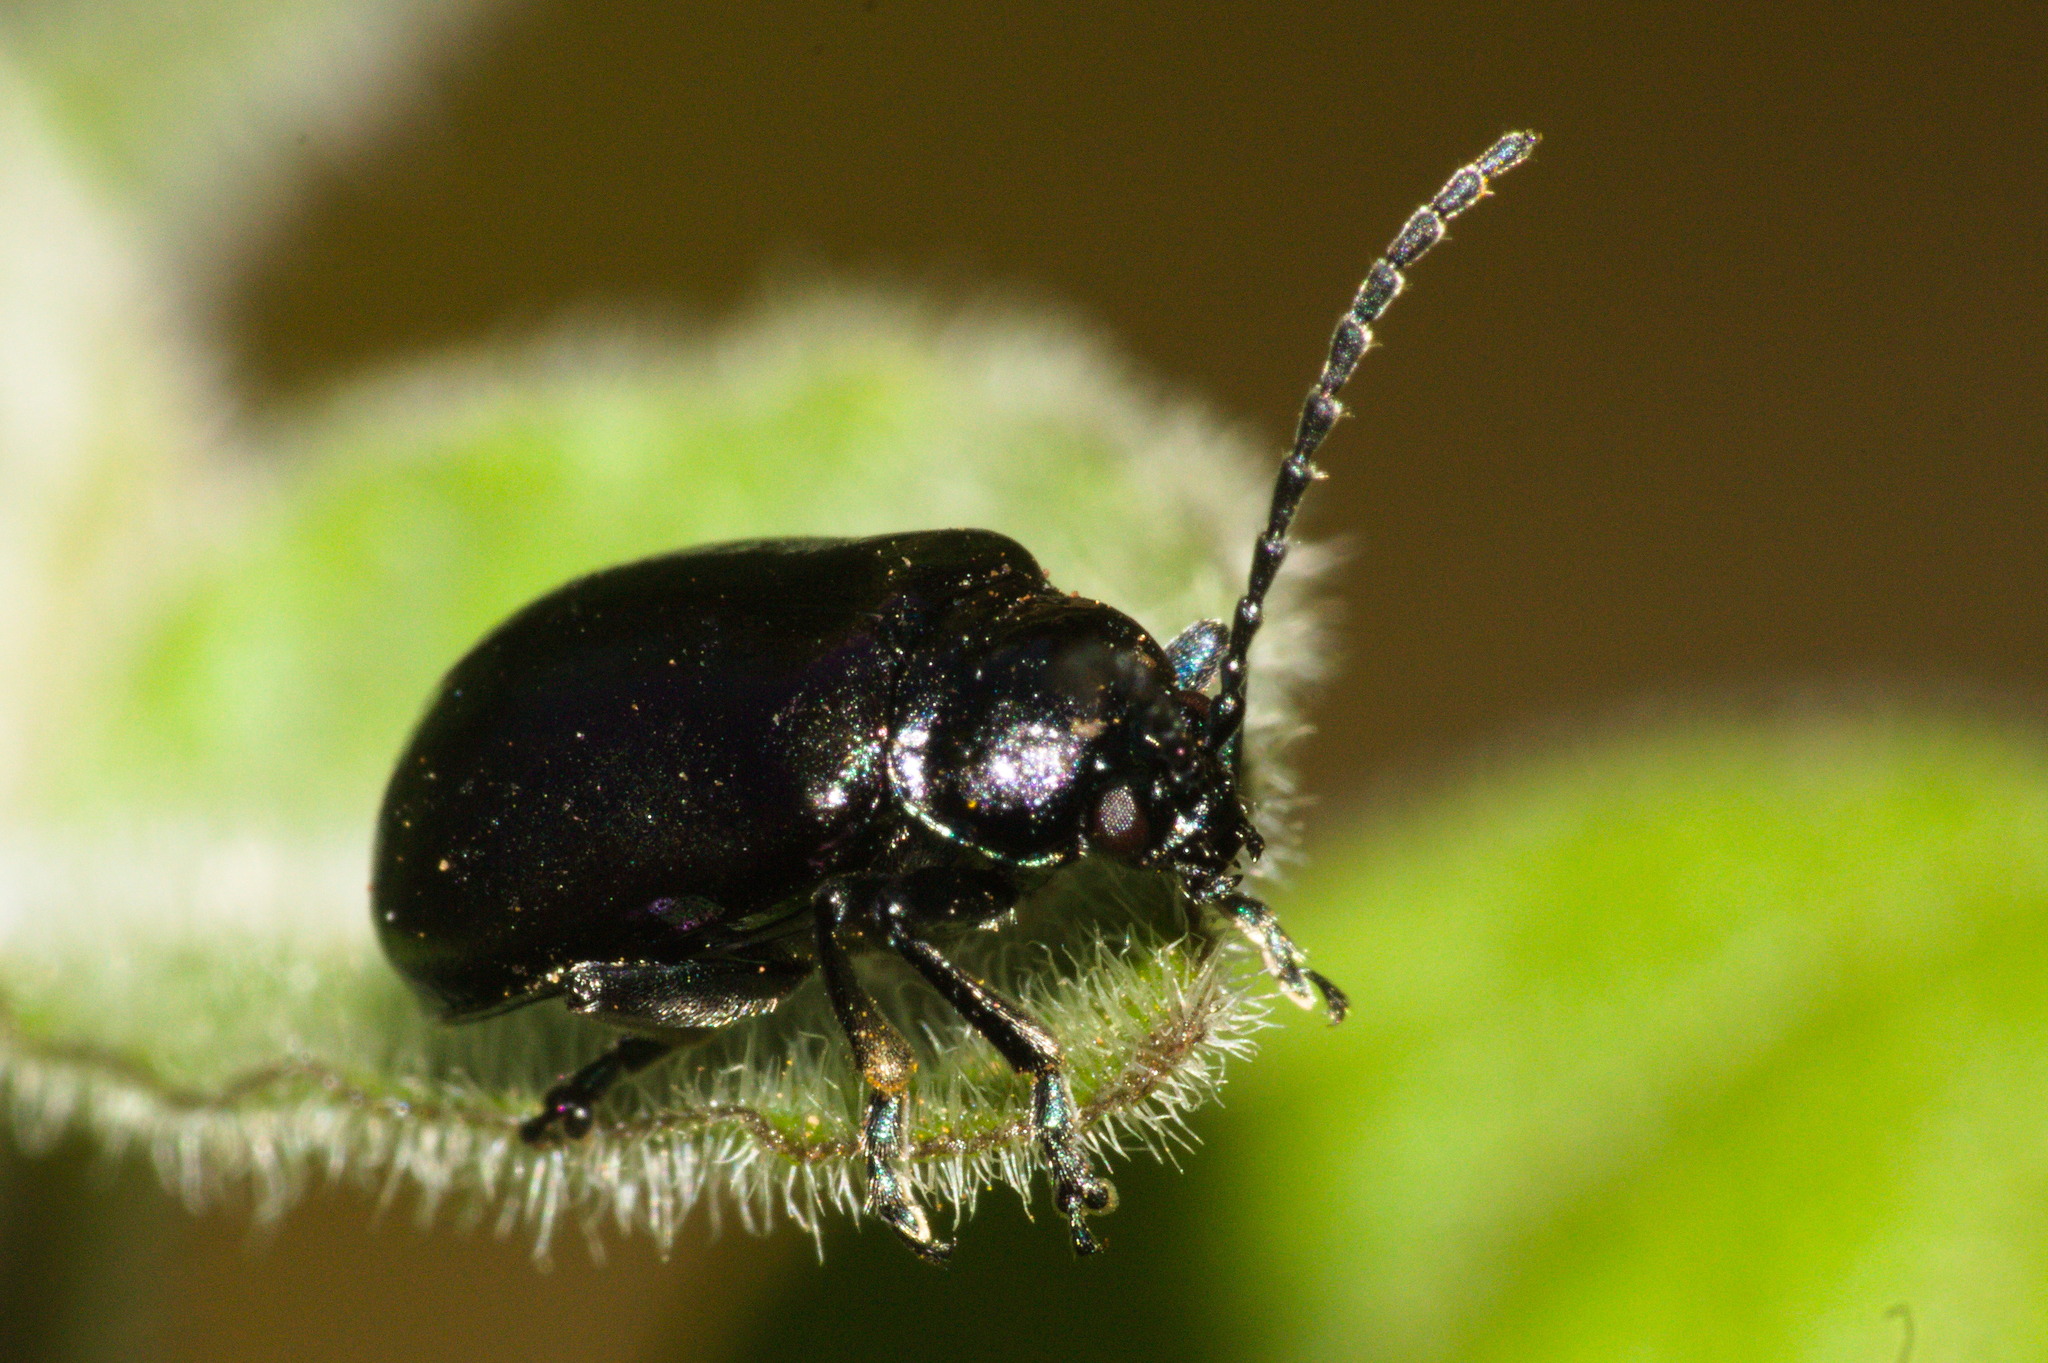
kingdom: Animalia
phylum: Arthropoda
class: Insecta
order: Coleoptera
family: Chrysomelidae
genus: Macrohaltica
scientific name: Macrohaltica
